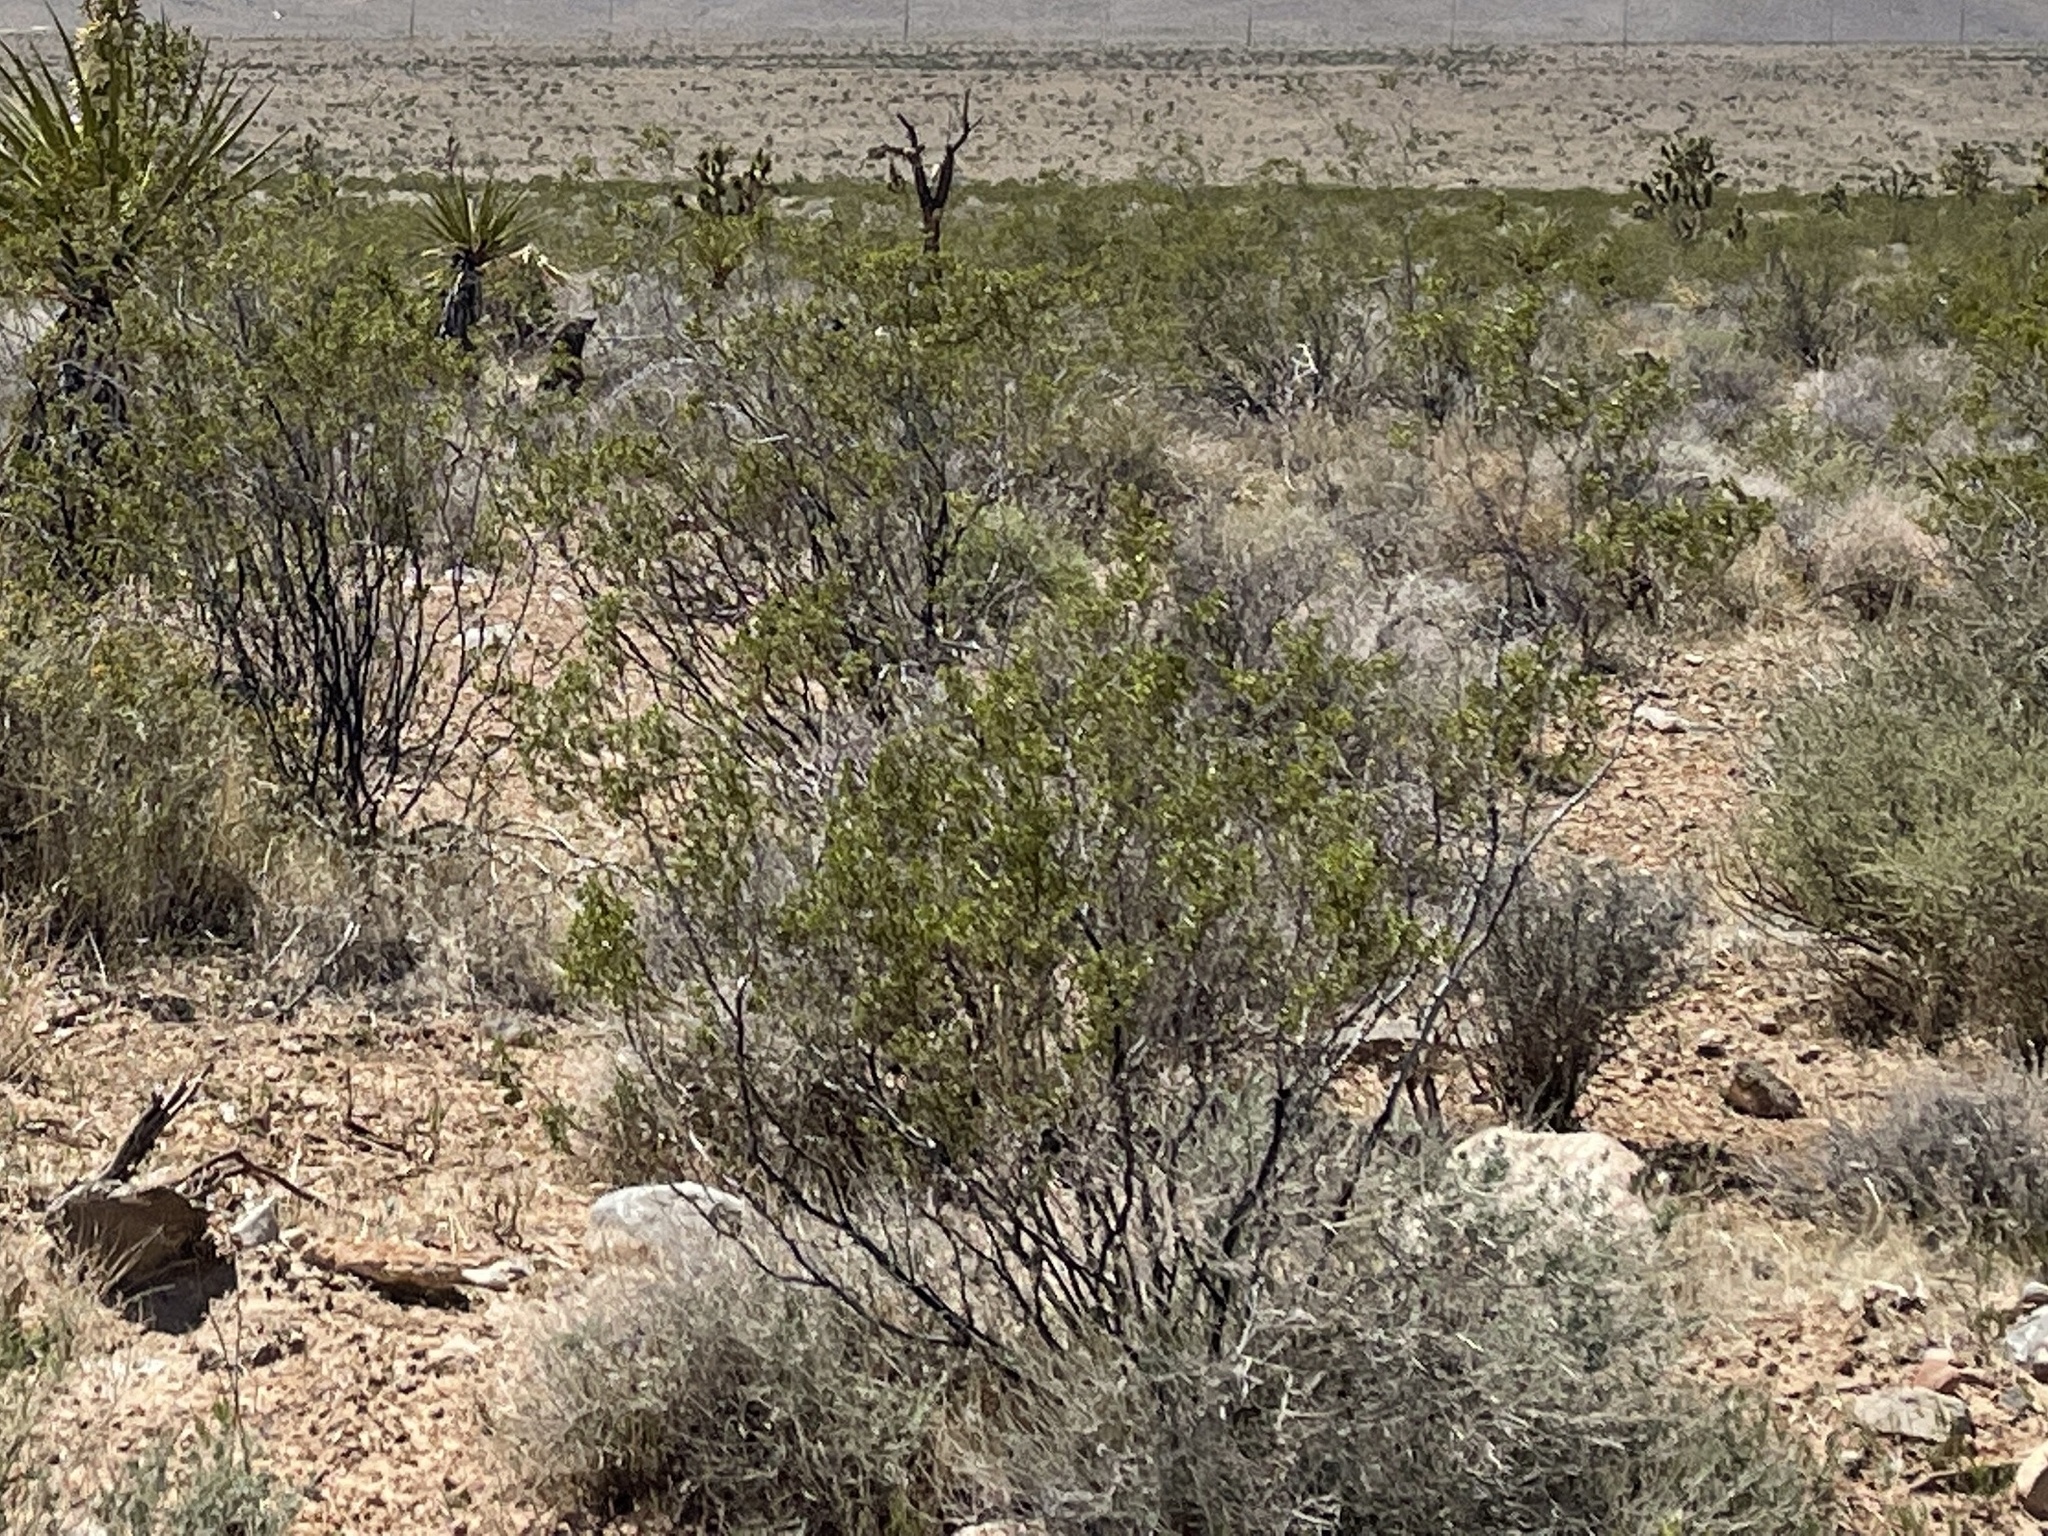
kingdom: Plantae
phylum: Tracheophyta
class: Magnoliopsida
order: Zygophyllales
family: Zygophyllaceae
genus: Larrea
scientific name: Larrea tridentata
